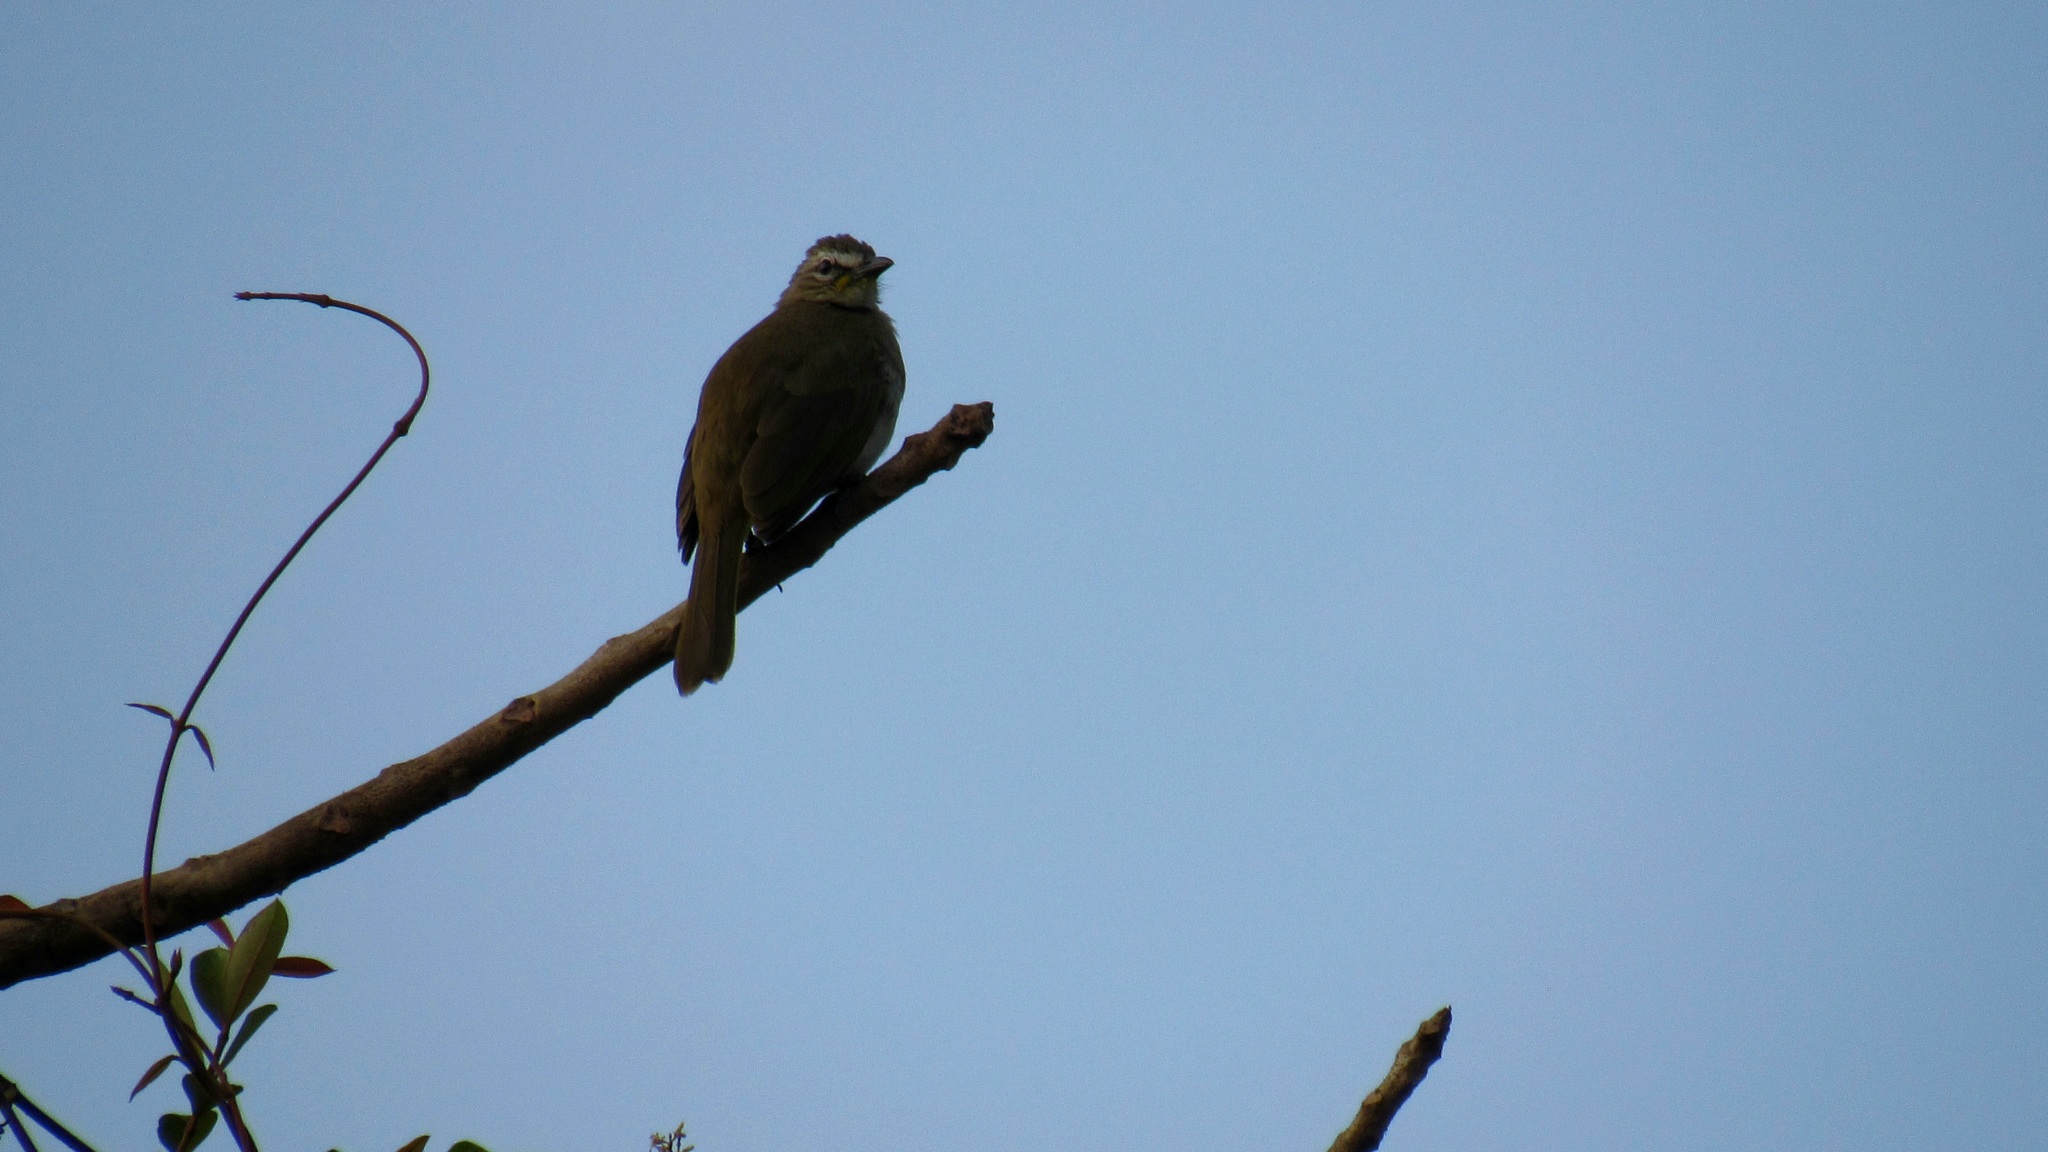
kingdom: Animalia
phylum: Chordata
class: Aves
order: Passeriformes
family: Pycnonotidae
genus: Pycnonotus
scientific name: Pycnonotus luteolus
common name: White-browed bulbul
